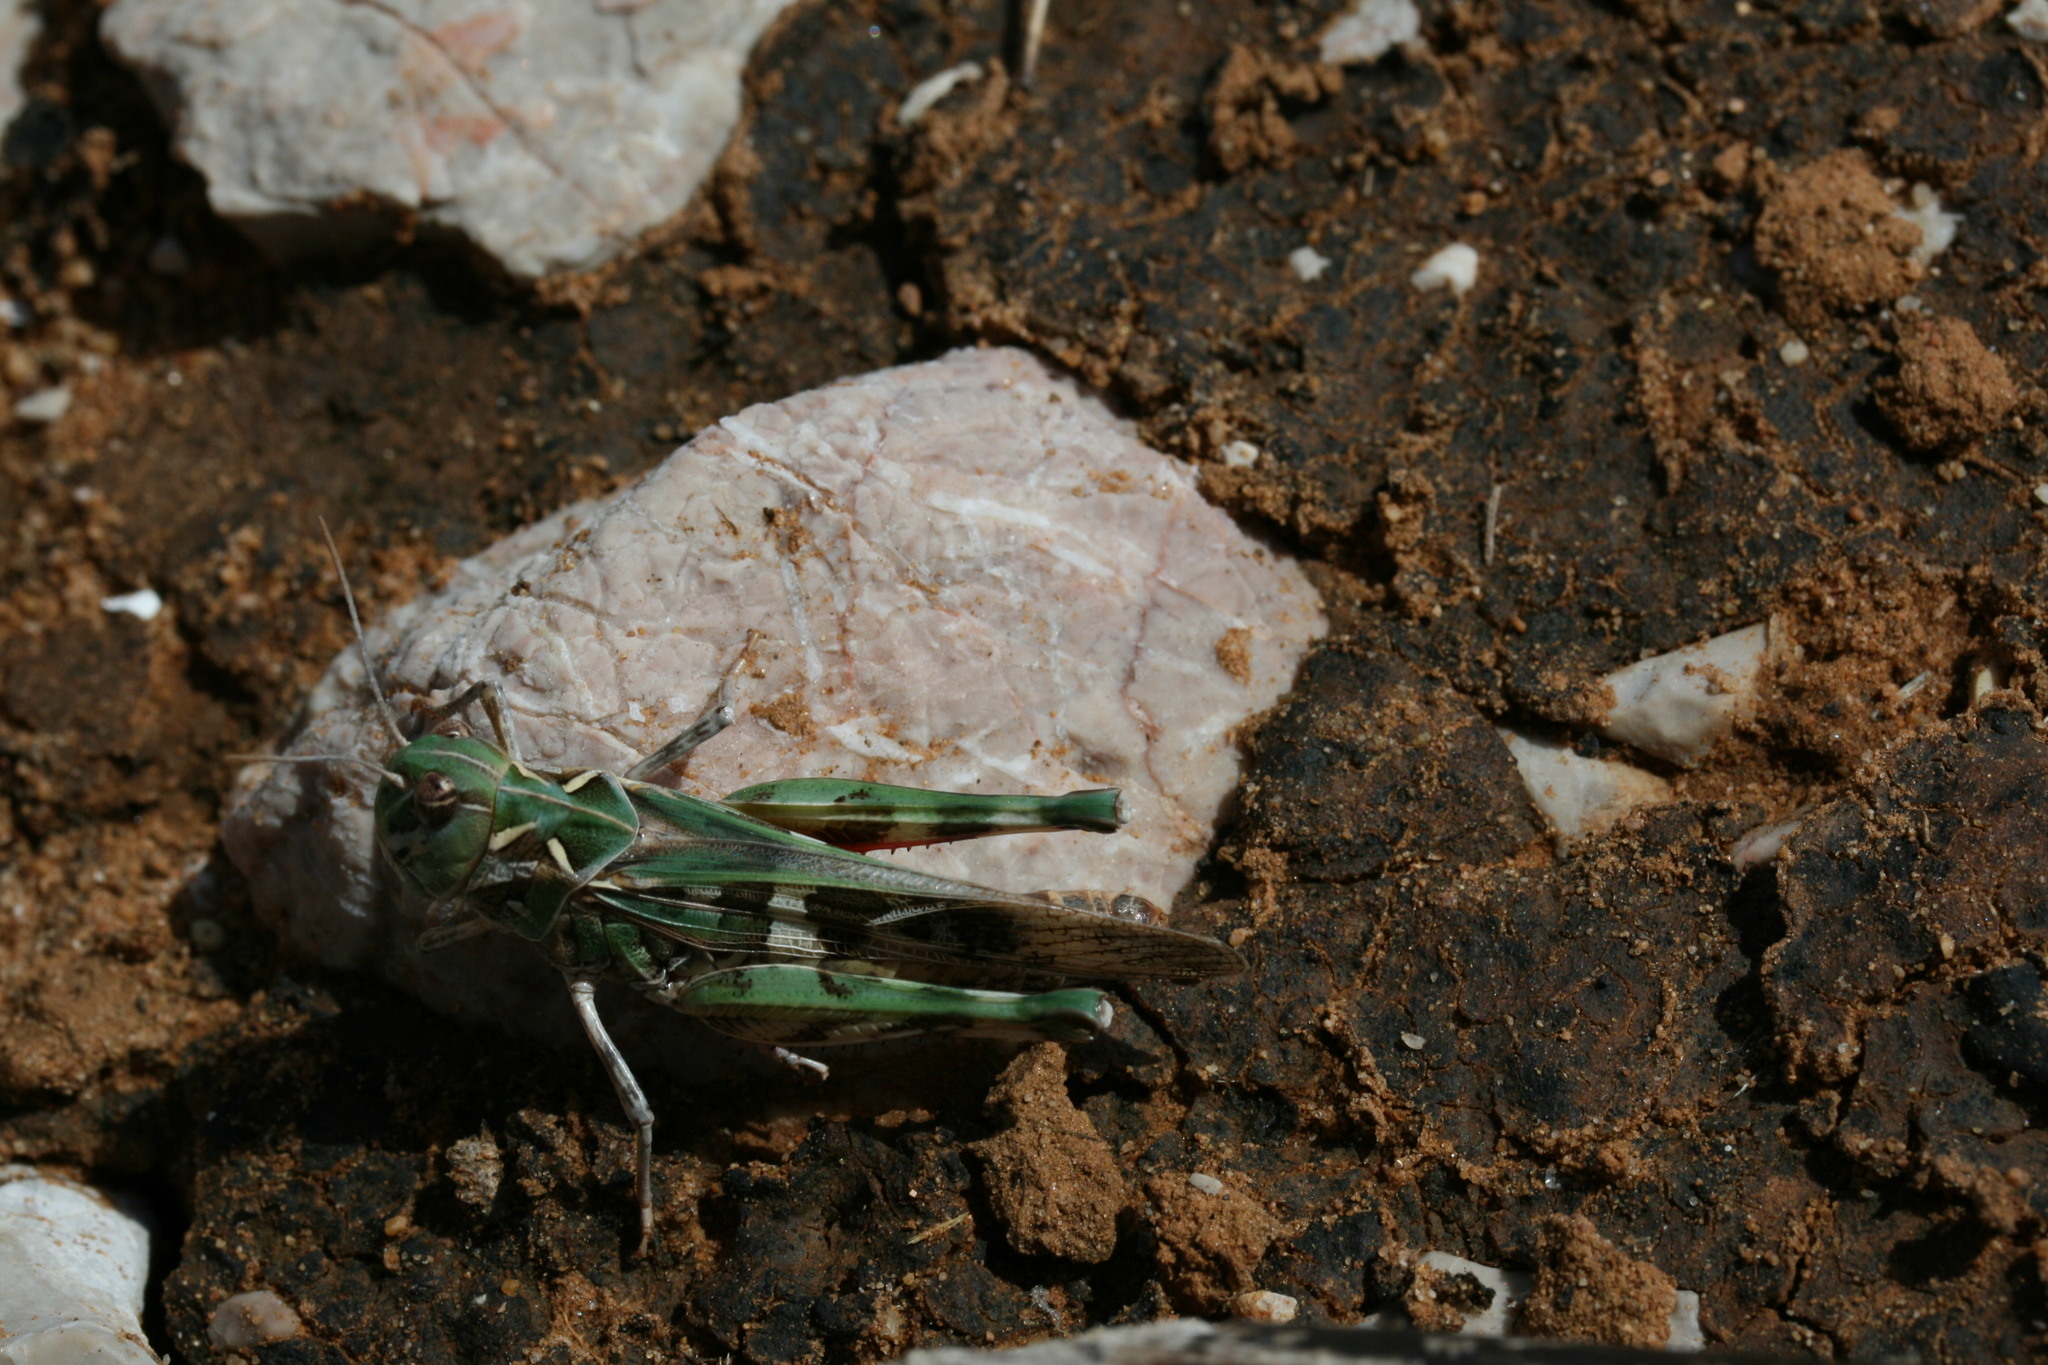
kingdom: Animalia
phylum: Arthropoda
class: Insecta
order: Orthoptera
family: Acrididae
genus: Oedaleus
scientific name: Oedaleus decorus
